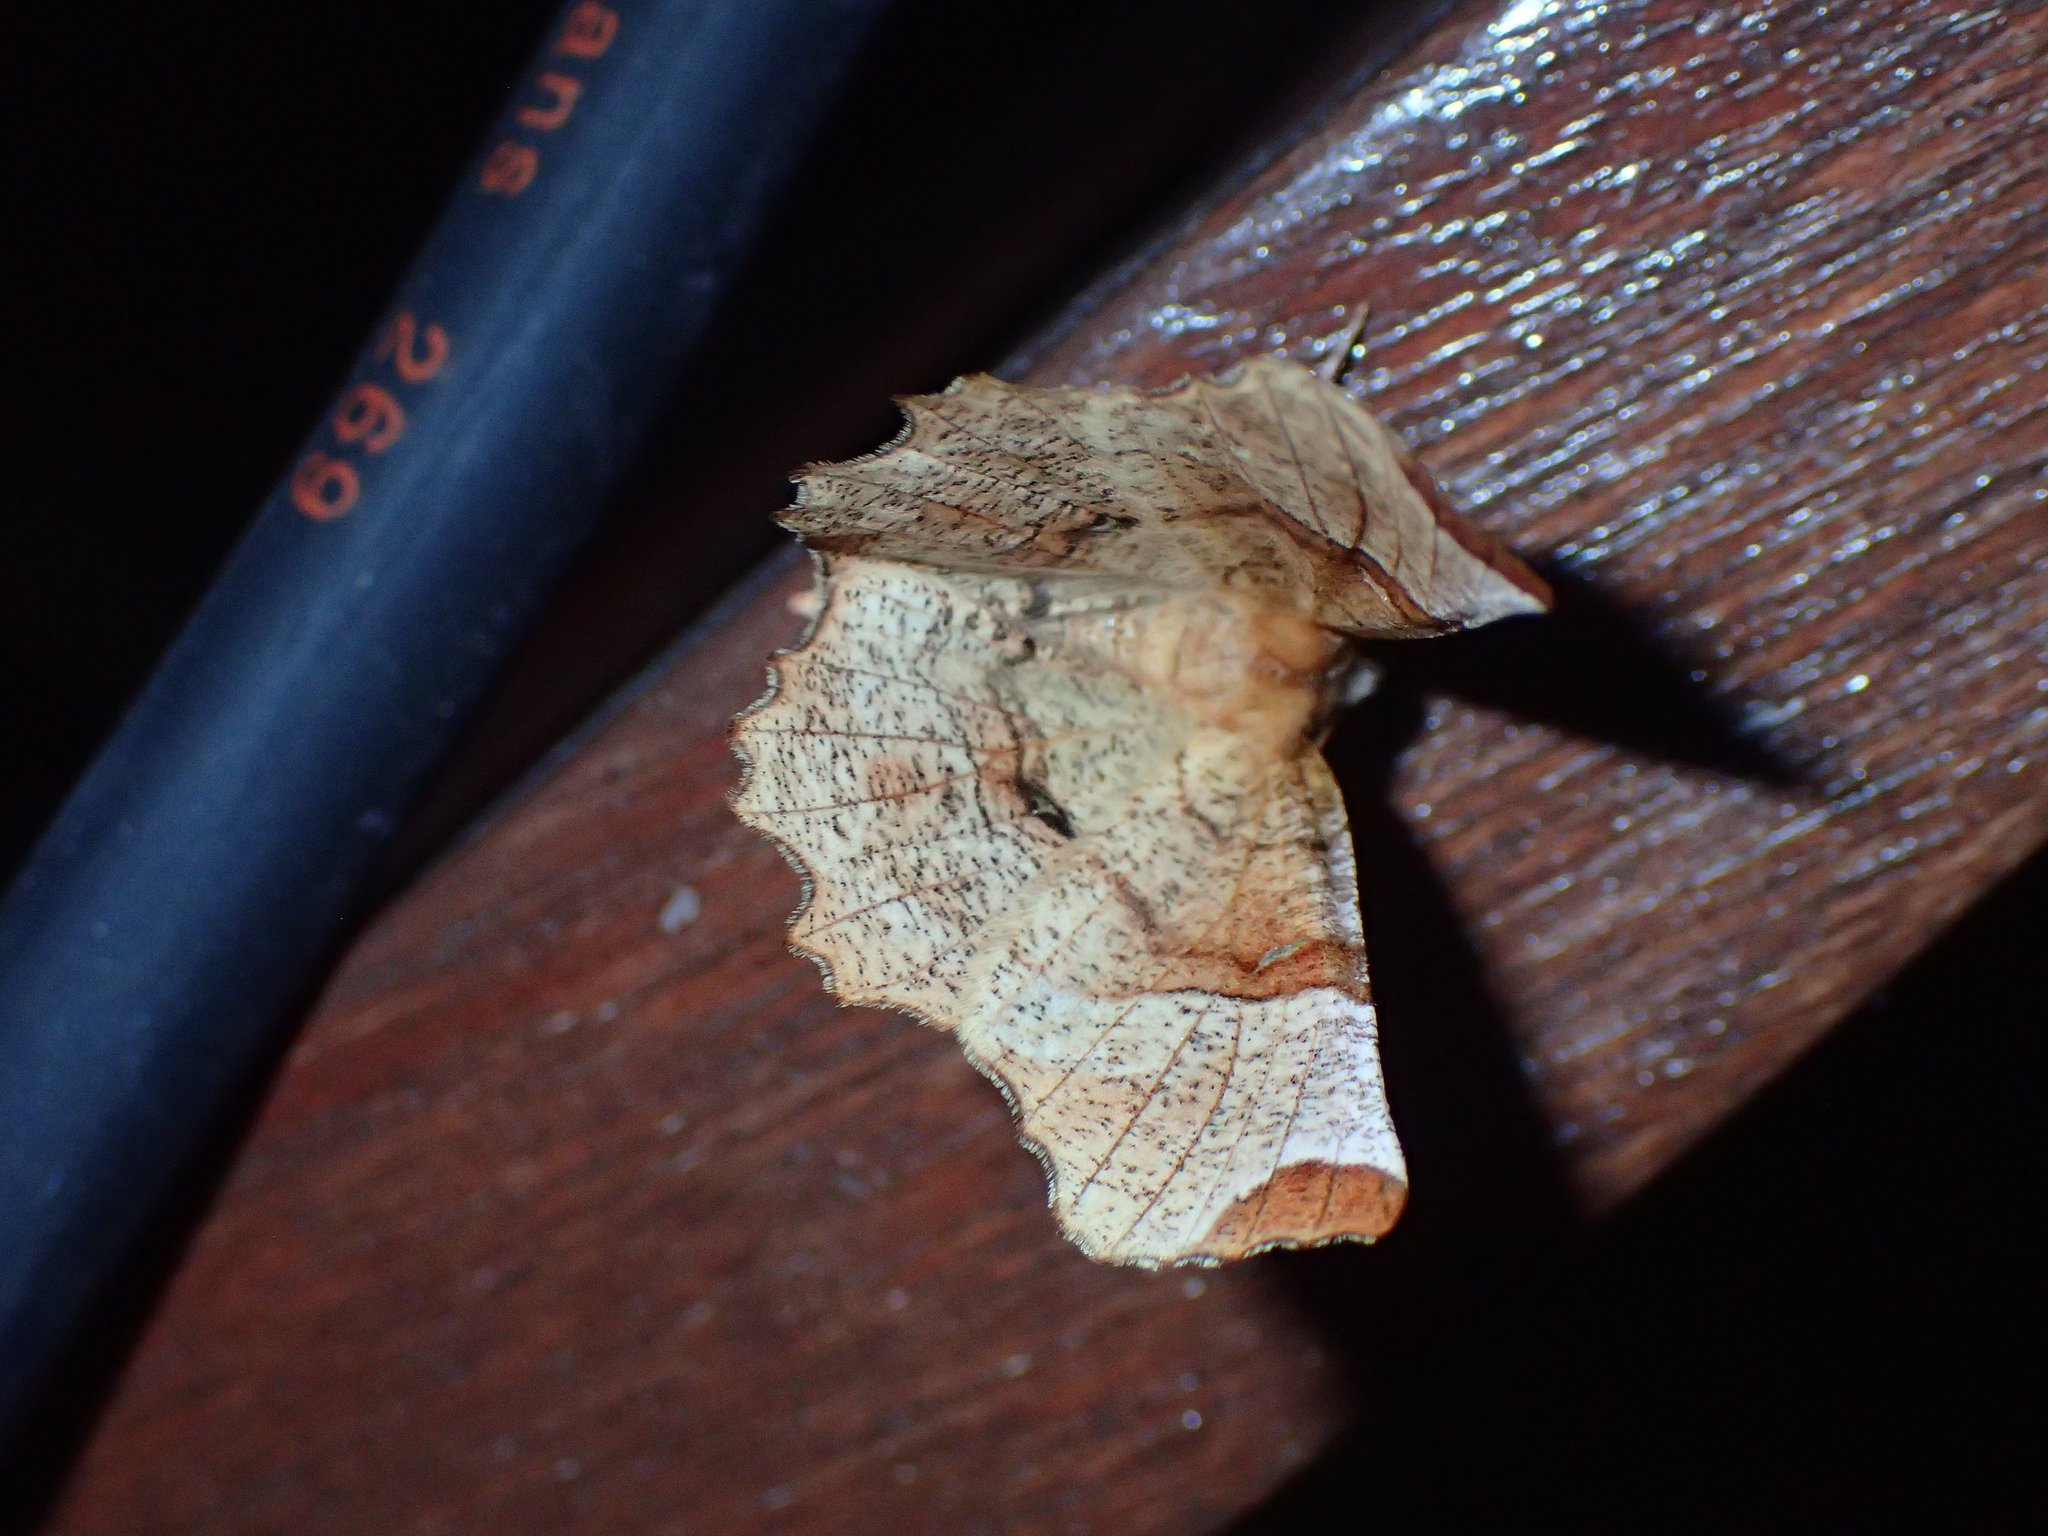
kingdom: Animalia
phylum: Arthropoda
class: Insecta
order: Lepidoptera
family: Geometridae
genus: Selenia
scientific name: Selenia lunularia
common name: Lunar thorn
